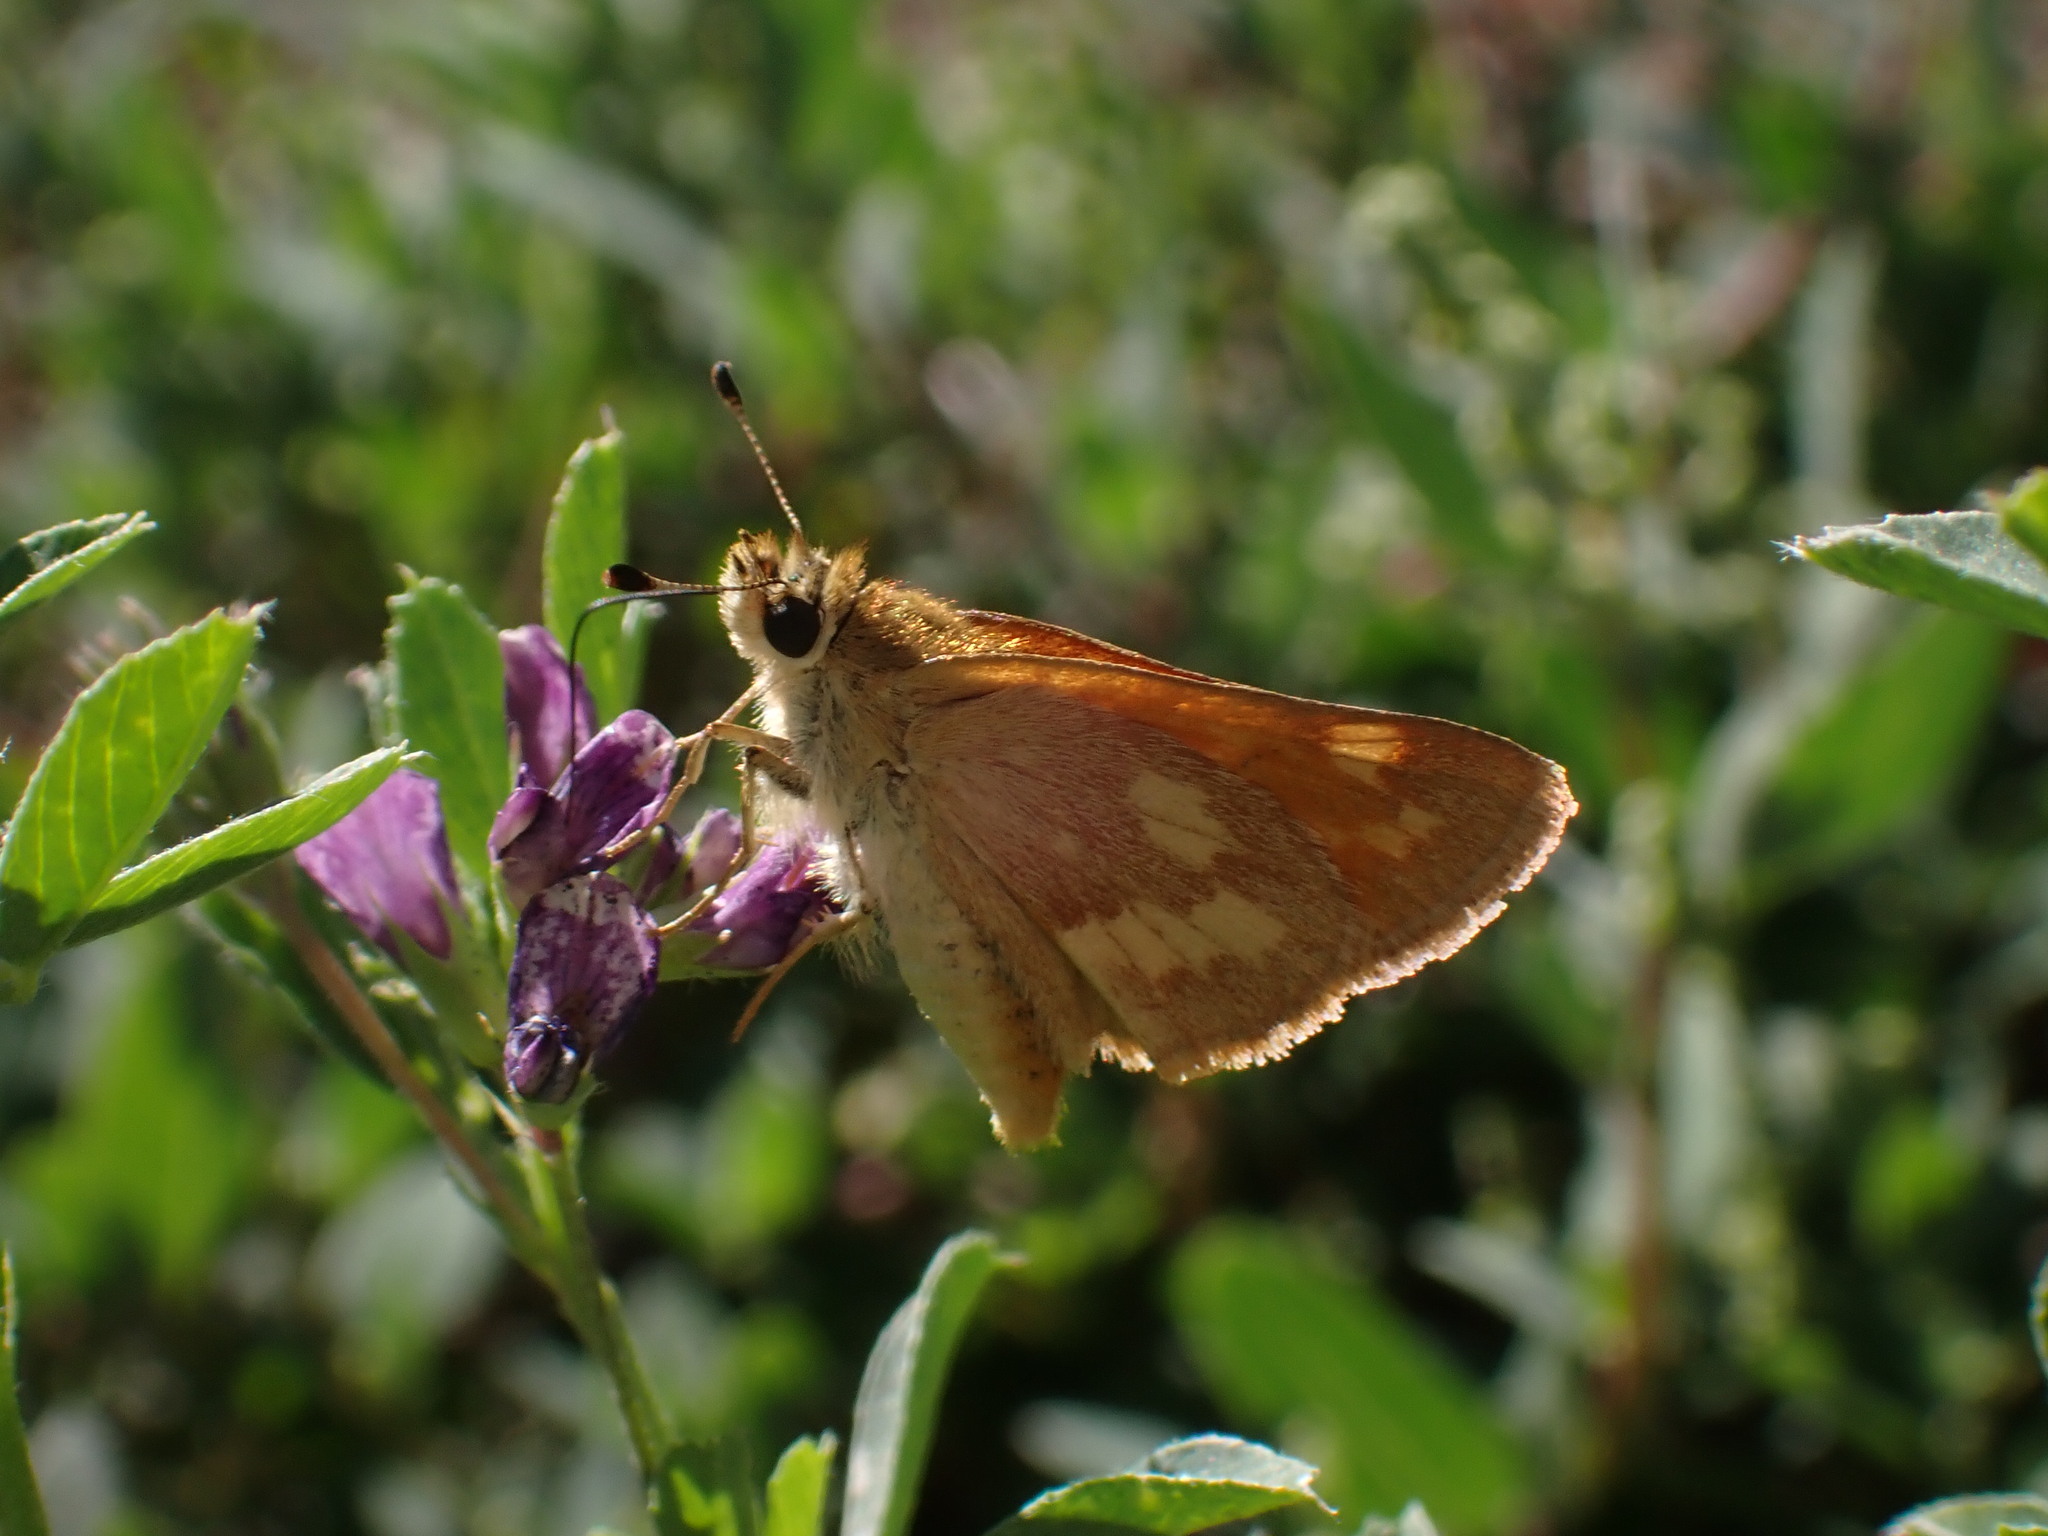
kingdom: Animalia
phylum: Arthropoda
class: Insecta
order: Lepidoptera
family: Hesperiidae
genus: Ochlodes
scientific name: Ochlodes sylvanoides
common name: Woodland skipper
